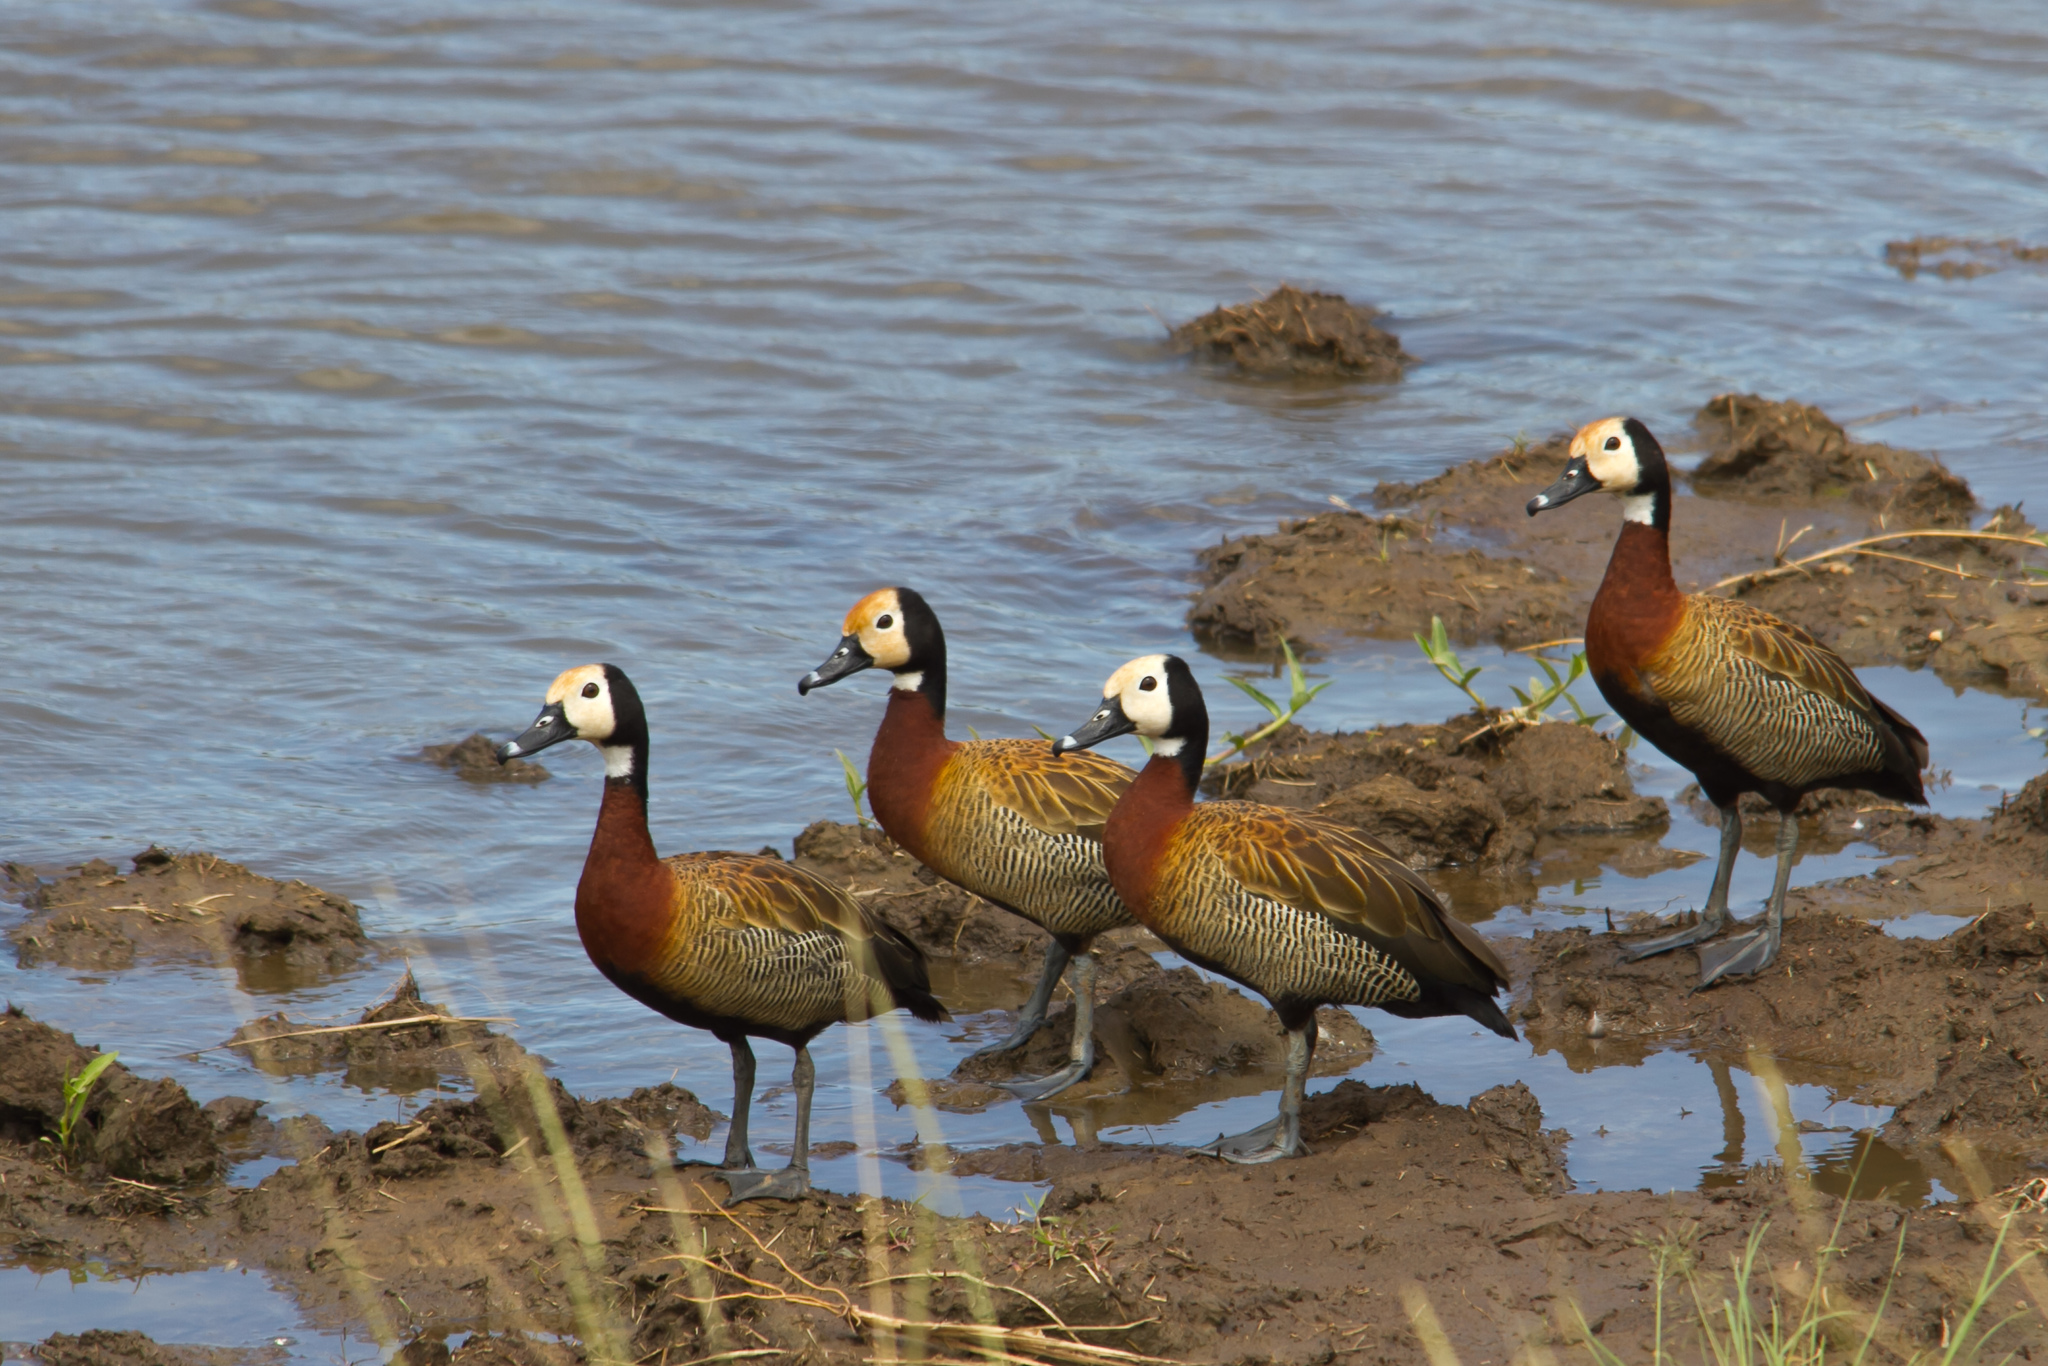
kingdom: Animalia
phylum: Chordata
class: Aves
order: Anseriformes
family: Anatidae
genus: Dendrocygna
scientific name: Dendrocygna viduata
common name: White-faced whistling duck
